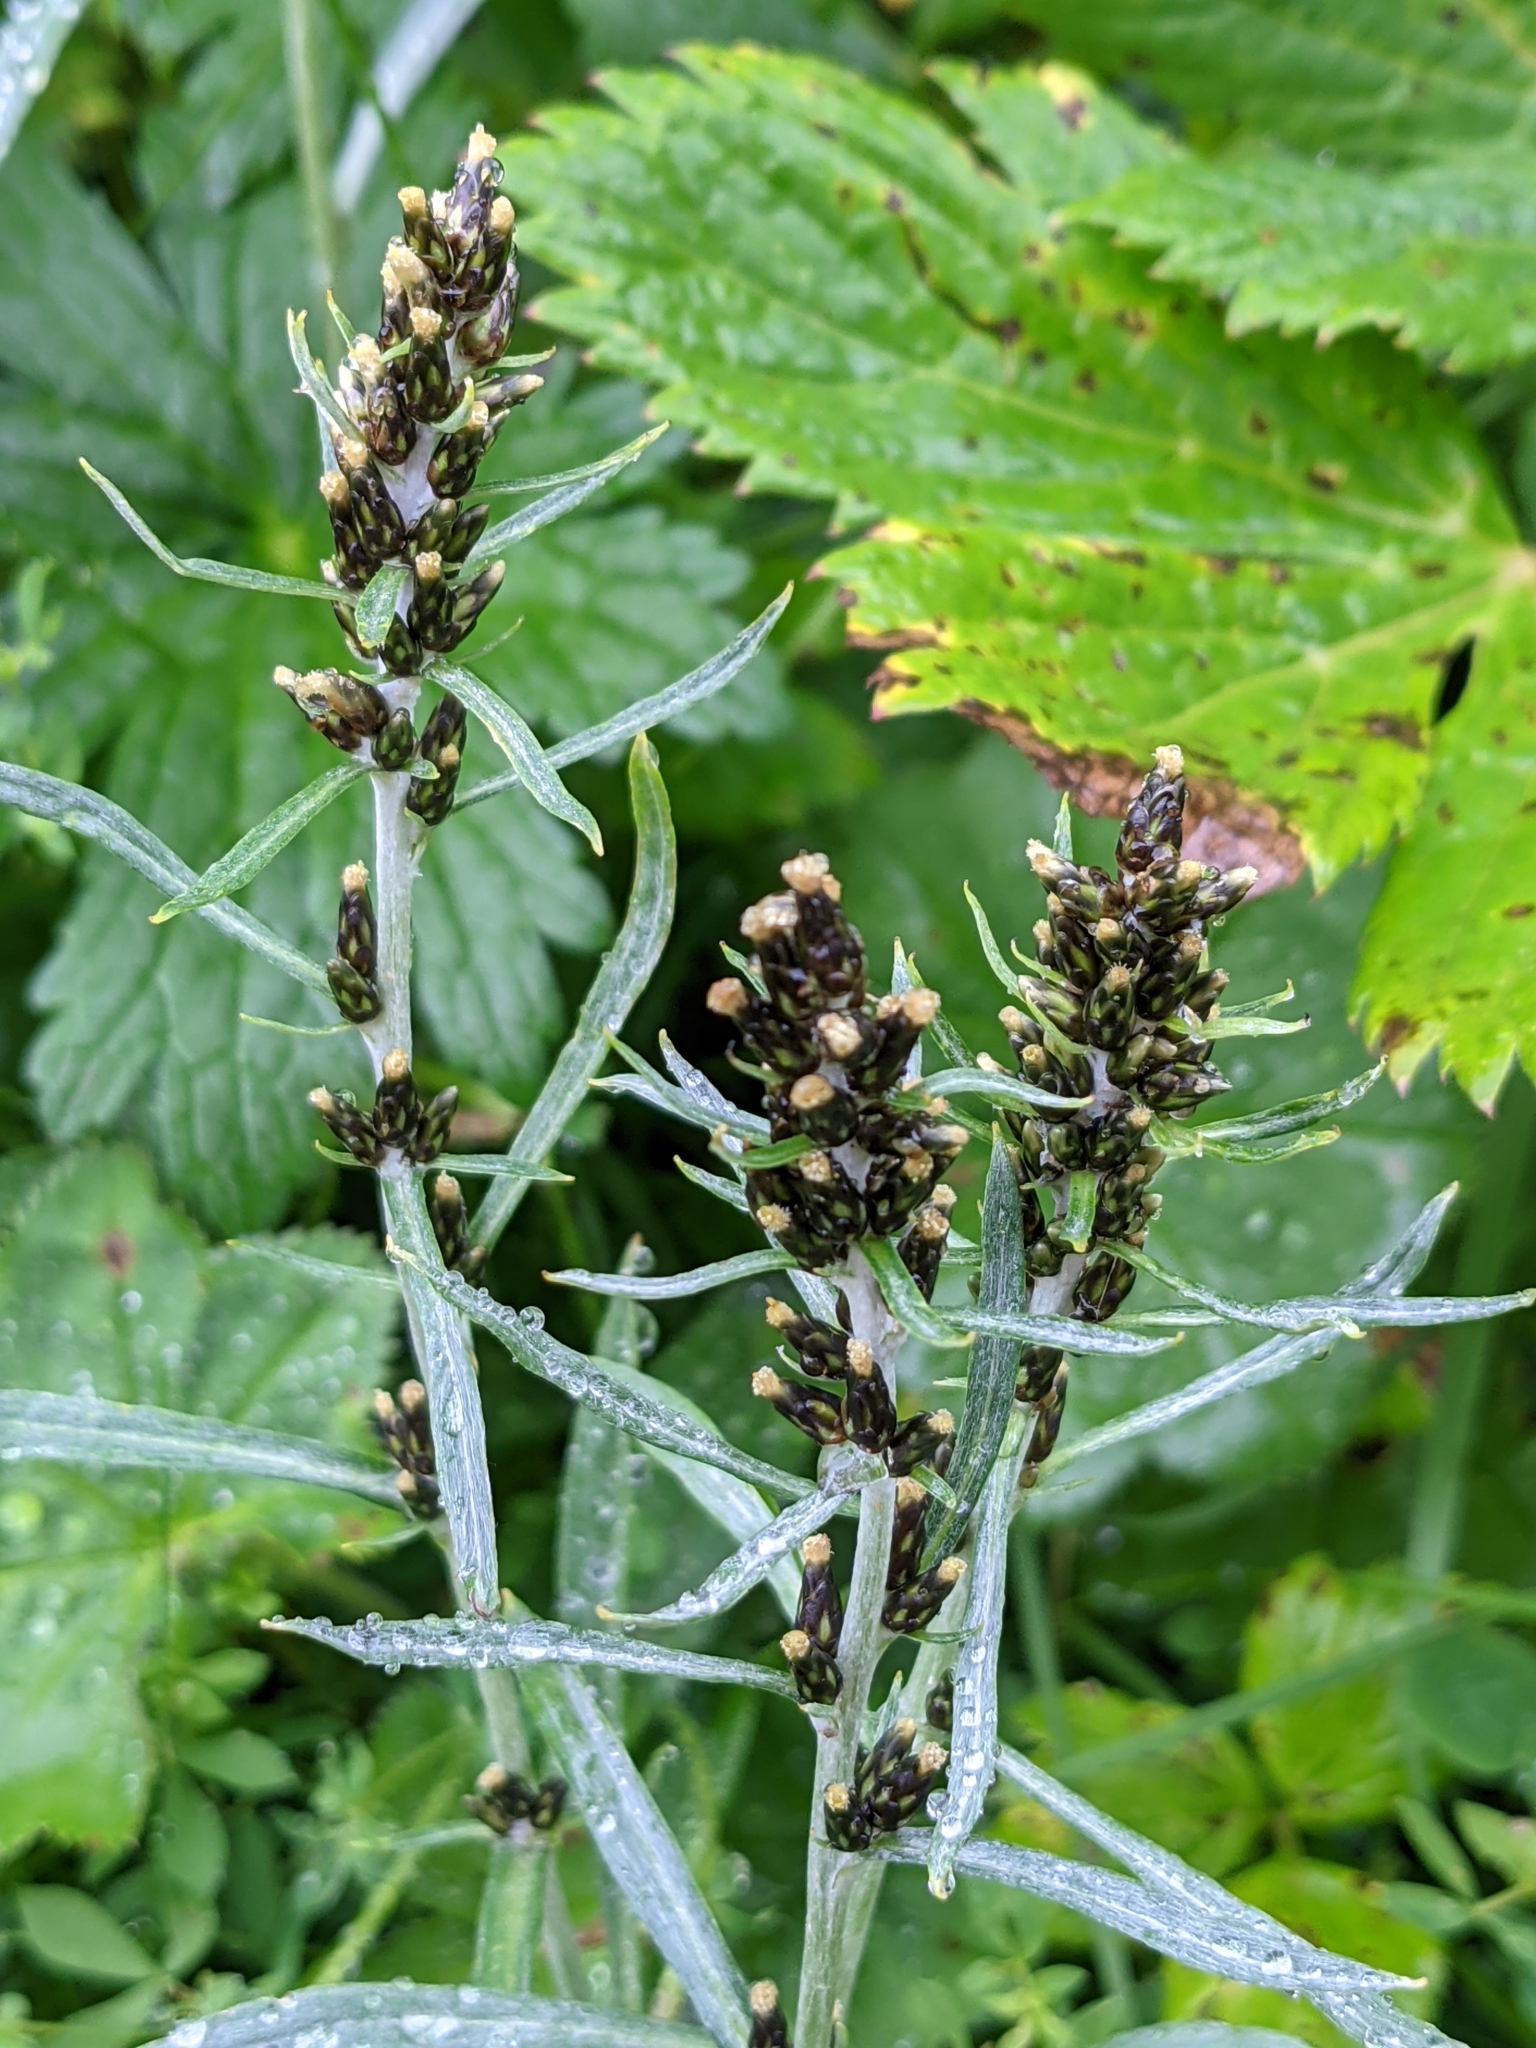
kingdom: Plantae
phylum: Tracheophyta
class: Magnoliopsida
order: Asterales
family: Asteraceae
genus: Omalotheca
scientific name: Omalotheca sylvatica
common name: Heath cudweed
